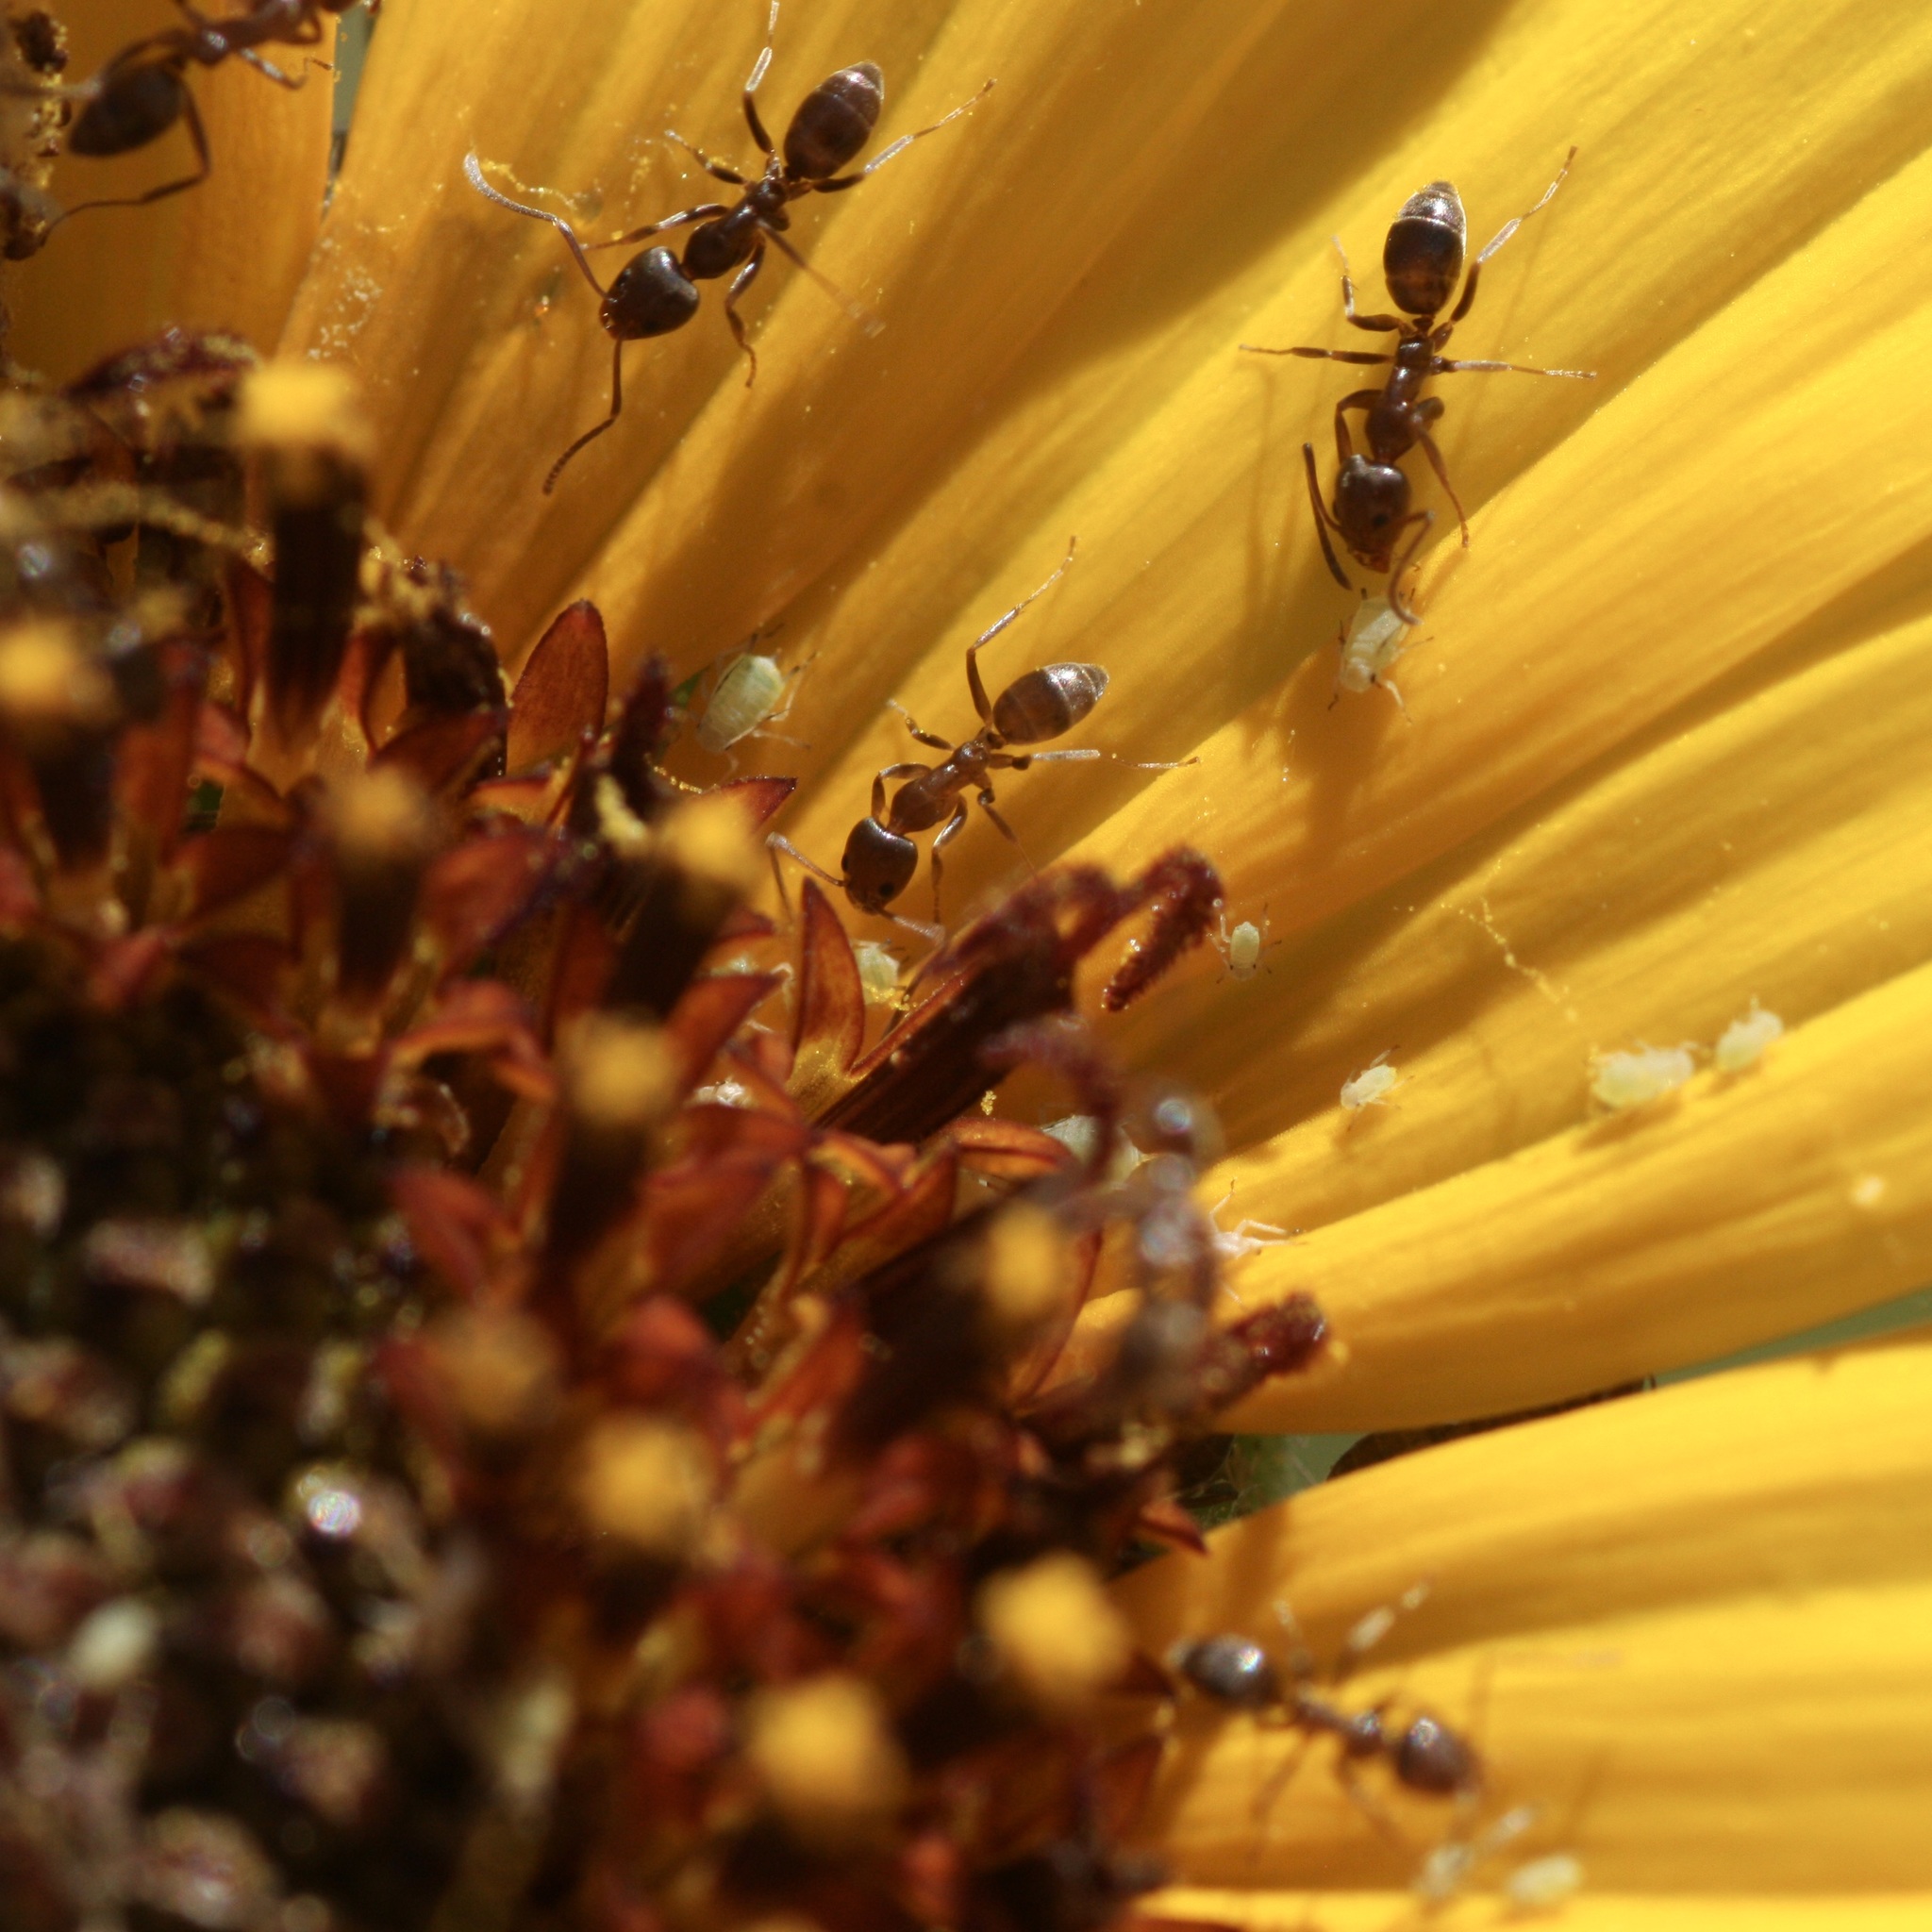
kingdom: Animalia
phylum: Arthropoda
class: Insecta
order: Hymenoptera
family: Formicidae
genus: Linepithema
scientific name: Linepithema humile
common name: Argentine ant
